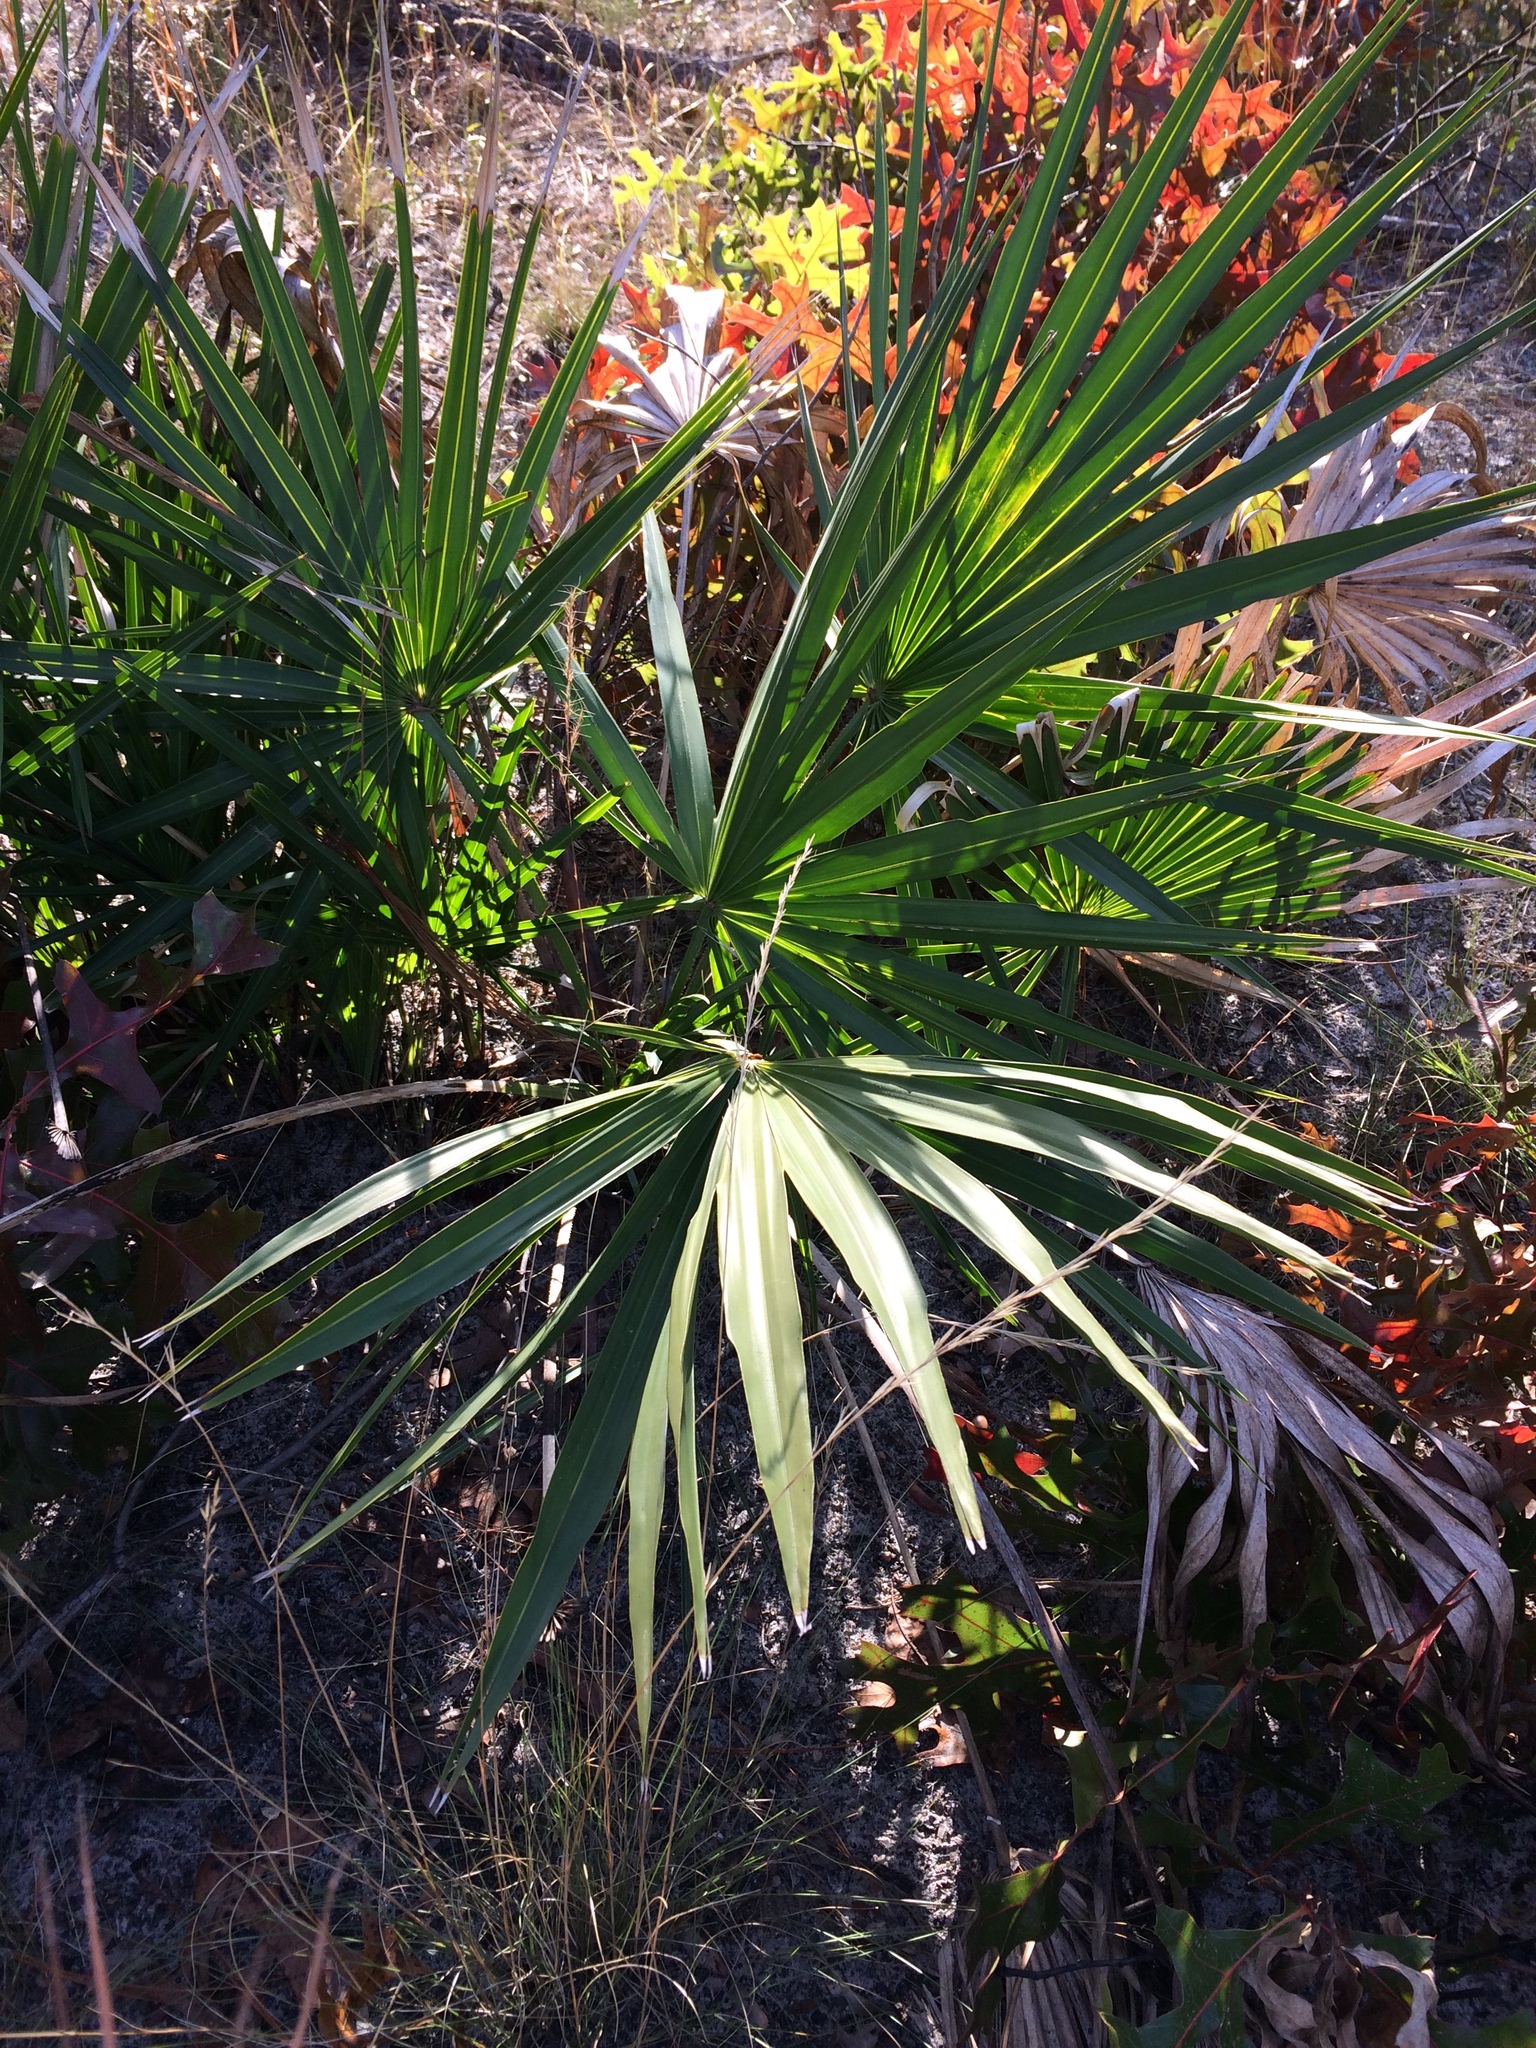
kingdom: Plantae
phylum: Tracheophyta
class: Liliopsida
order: Arecales
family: Arecaceae
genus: Serenoa
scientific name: Serenoa repens
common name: Saw-palmetto
